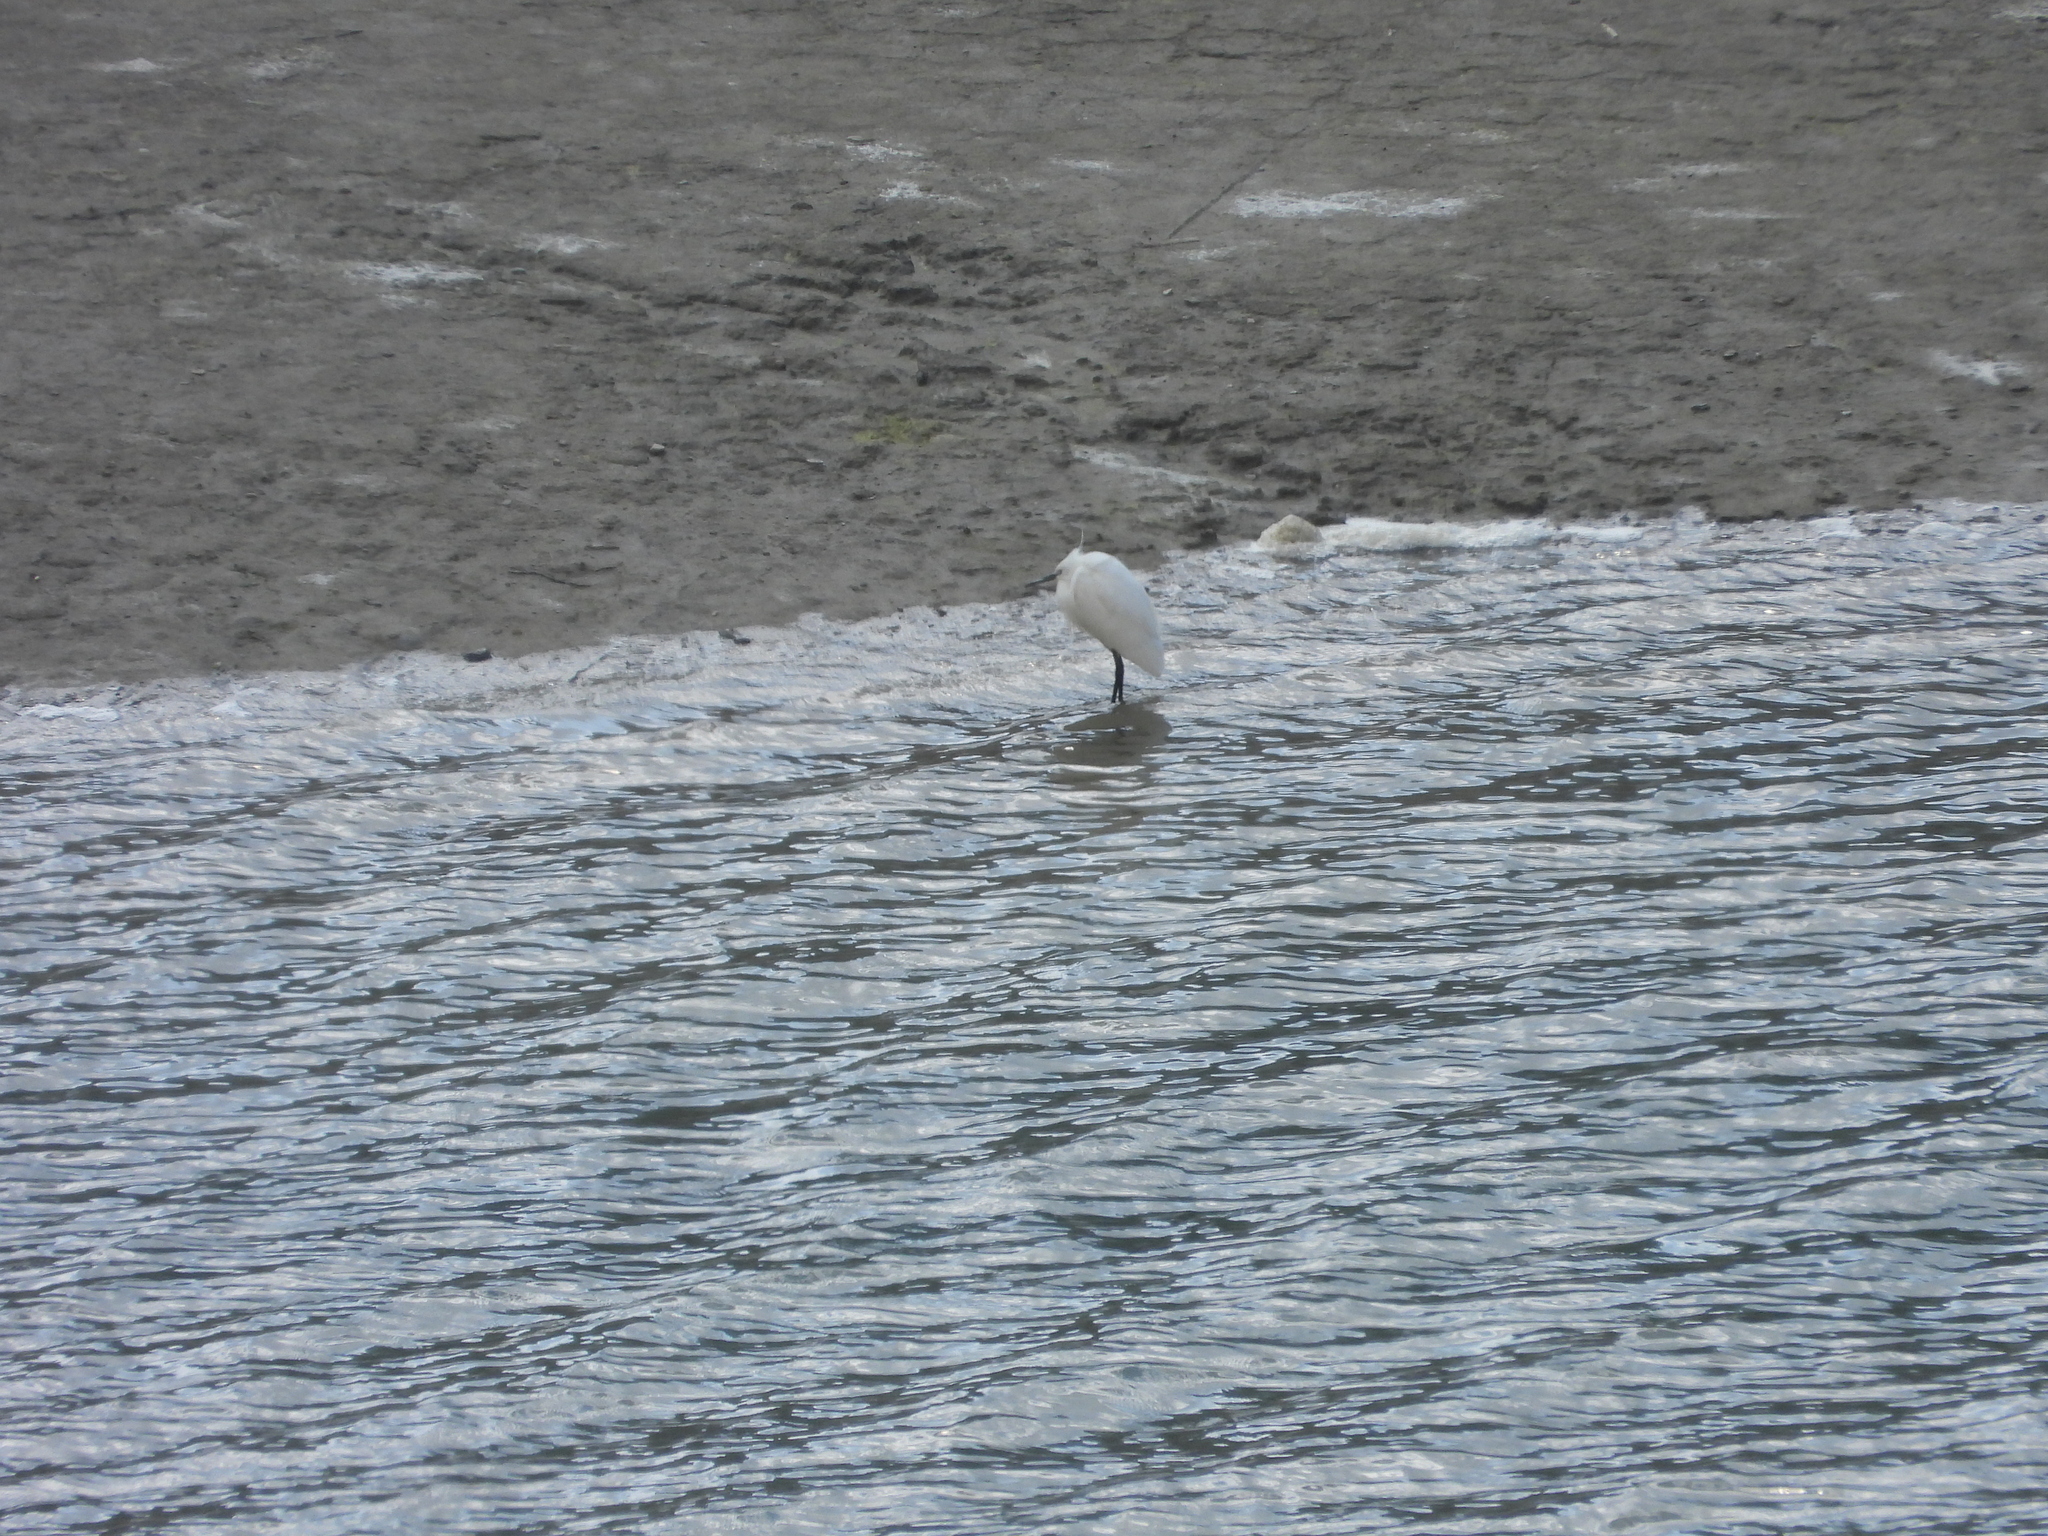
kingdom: Animalia
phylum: Chordata
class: Aves
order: Pelecaniformes
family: Ardeidae
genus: Egretta
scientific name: Egretta garzetta
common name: Little egret
